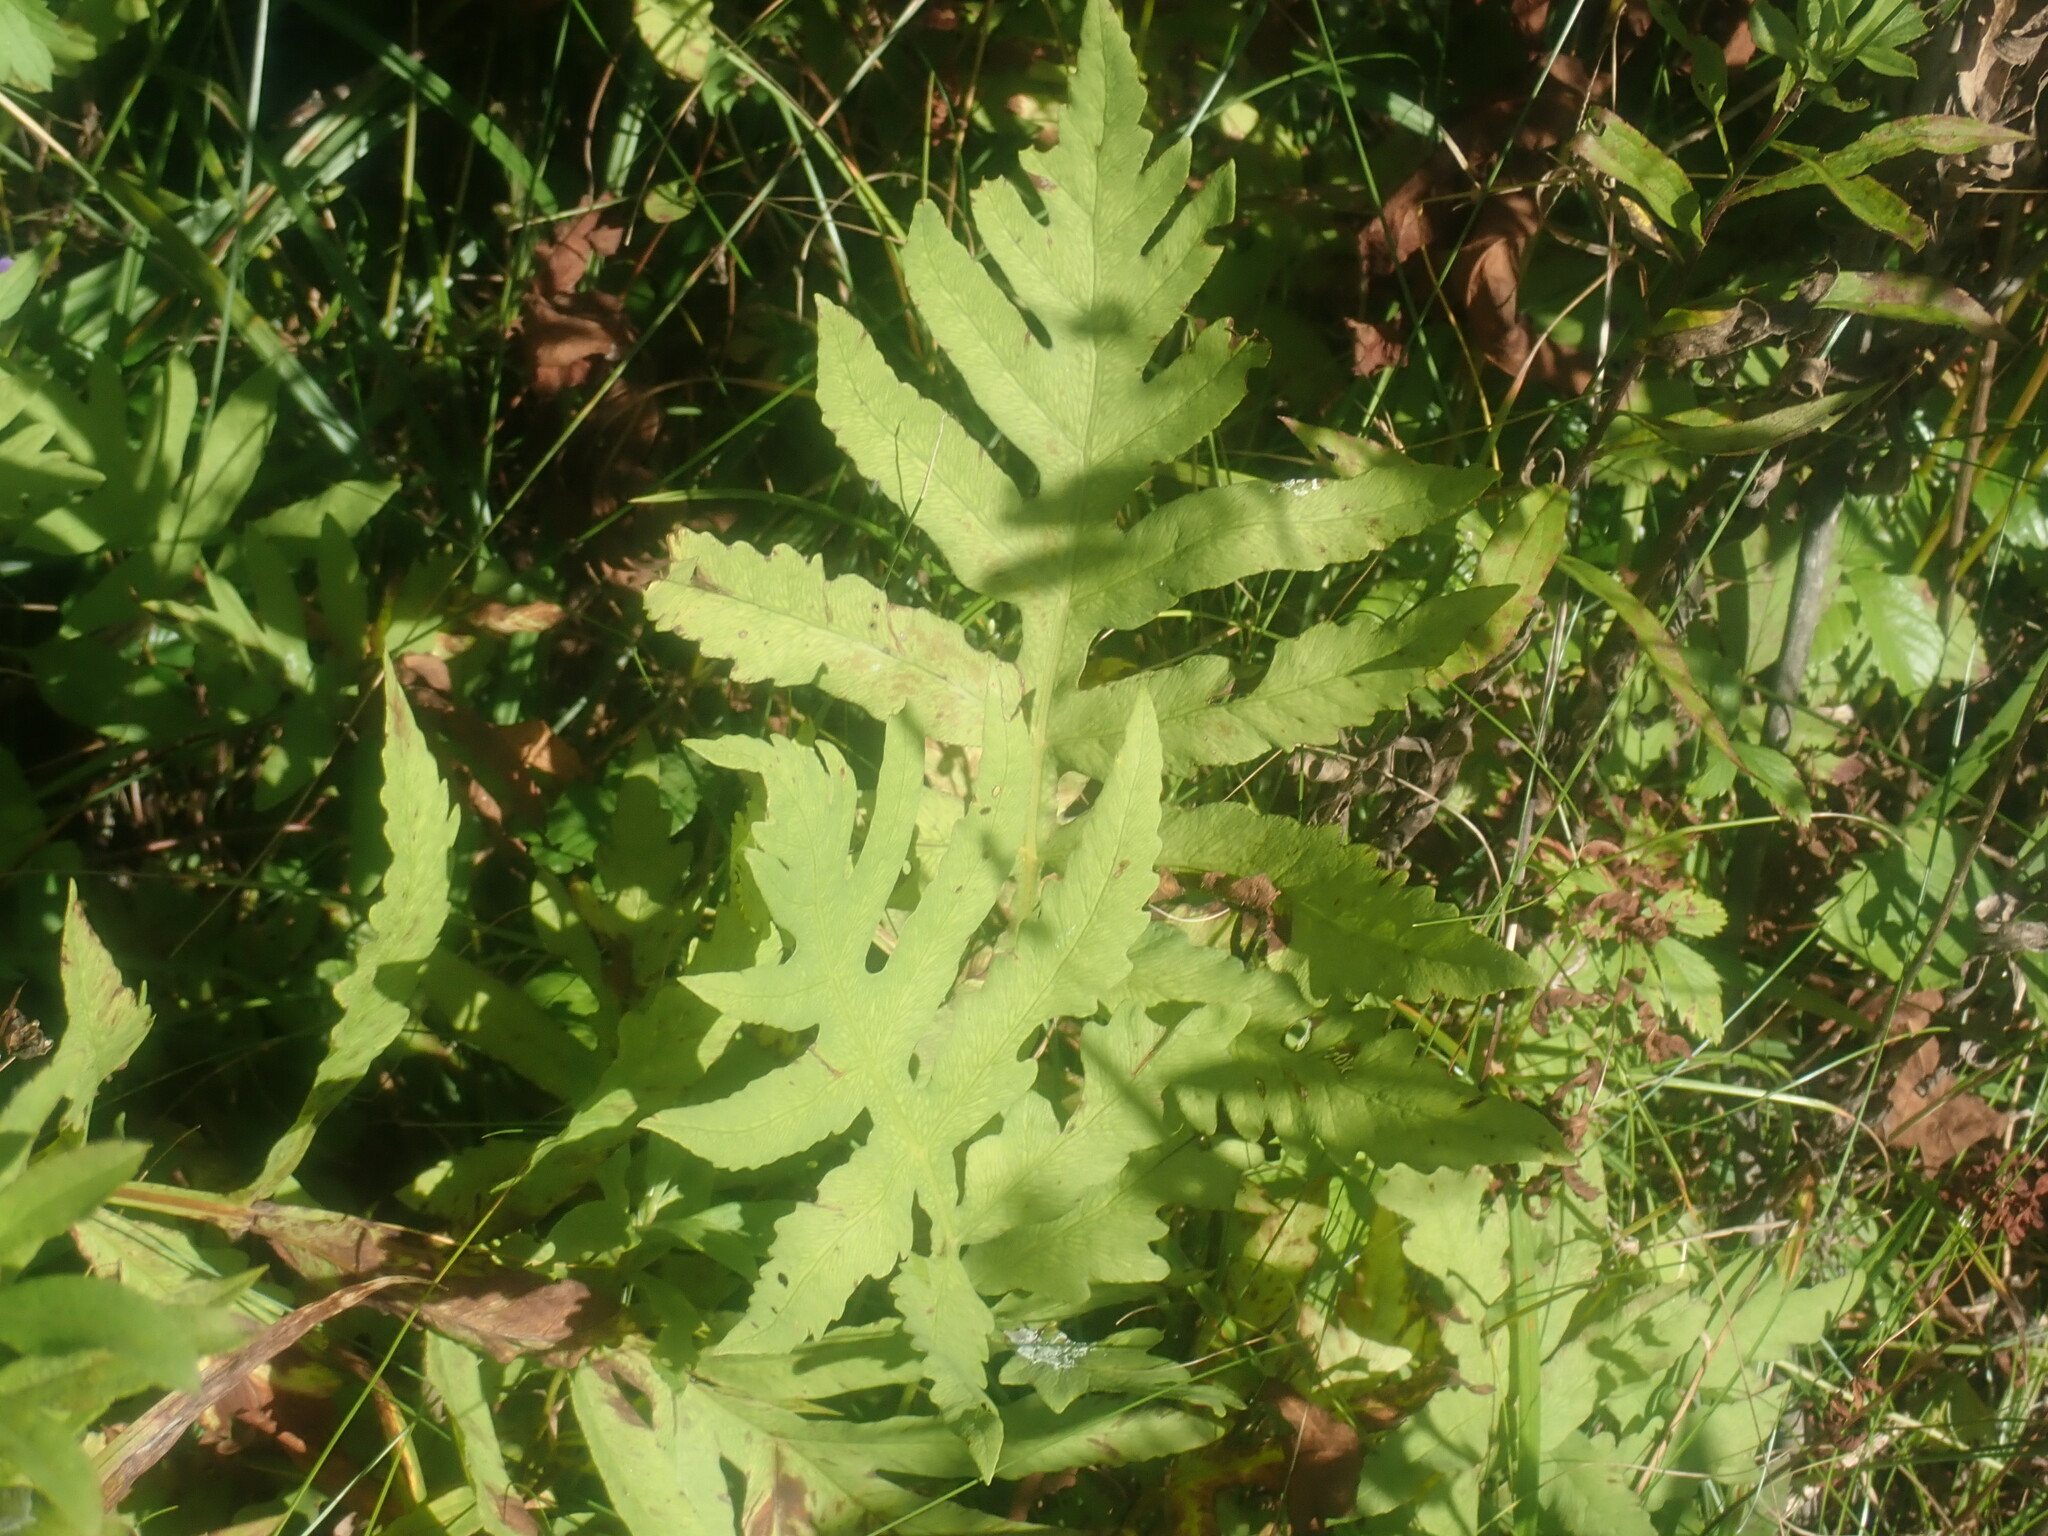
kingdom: Plantae
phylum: Tracheophyta
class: Polypodiopsida
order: Polypodiales
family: Onocleaceae
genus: Onoclea
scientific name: Onoclea sensibilis
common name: Sensitive fern
